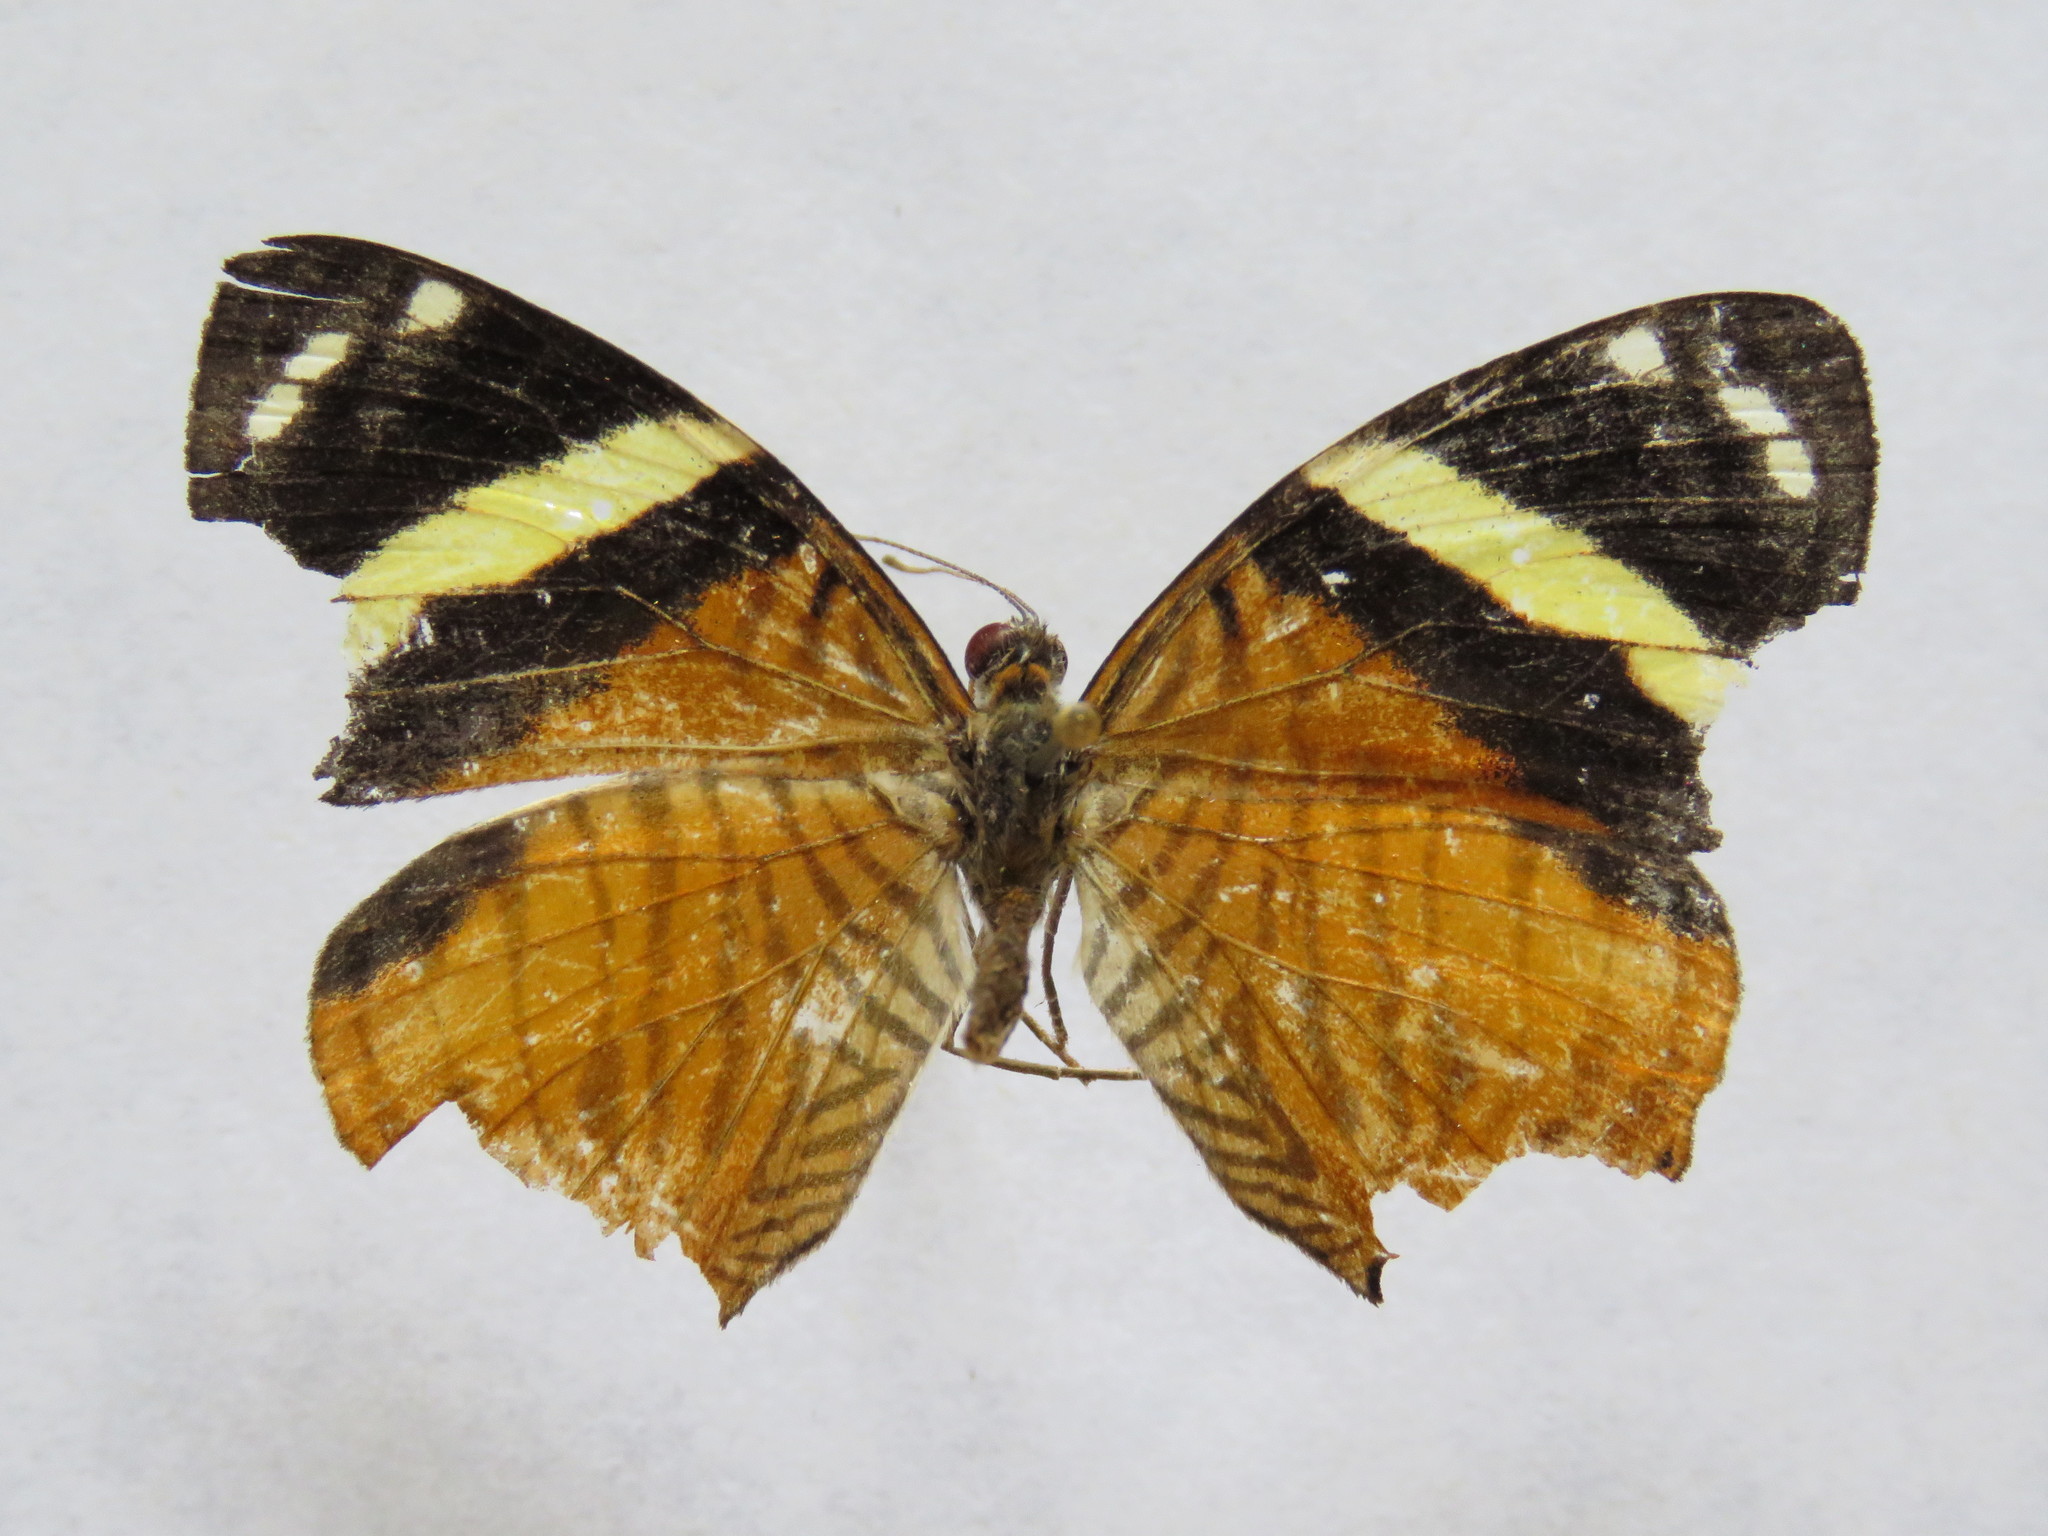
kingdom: Animalia
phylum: Arthropoda
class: Insecta
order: Lepidoptera
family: Nymphalidae
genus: Callizona
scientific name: Callizona acesta
